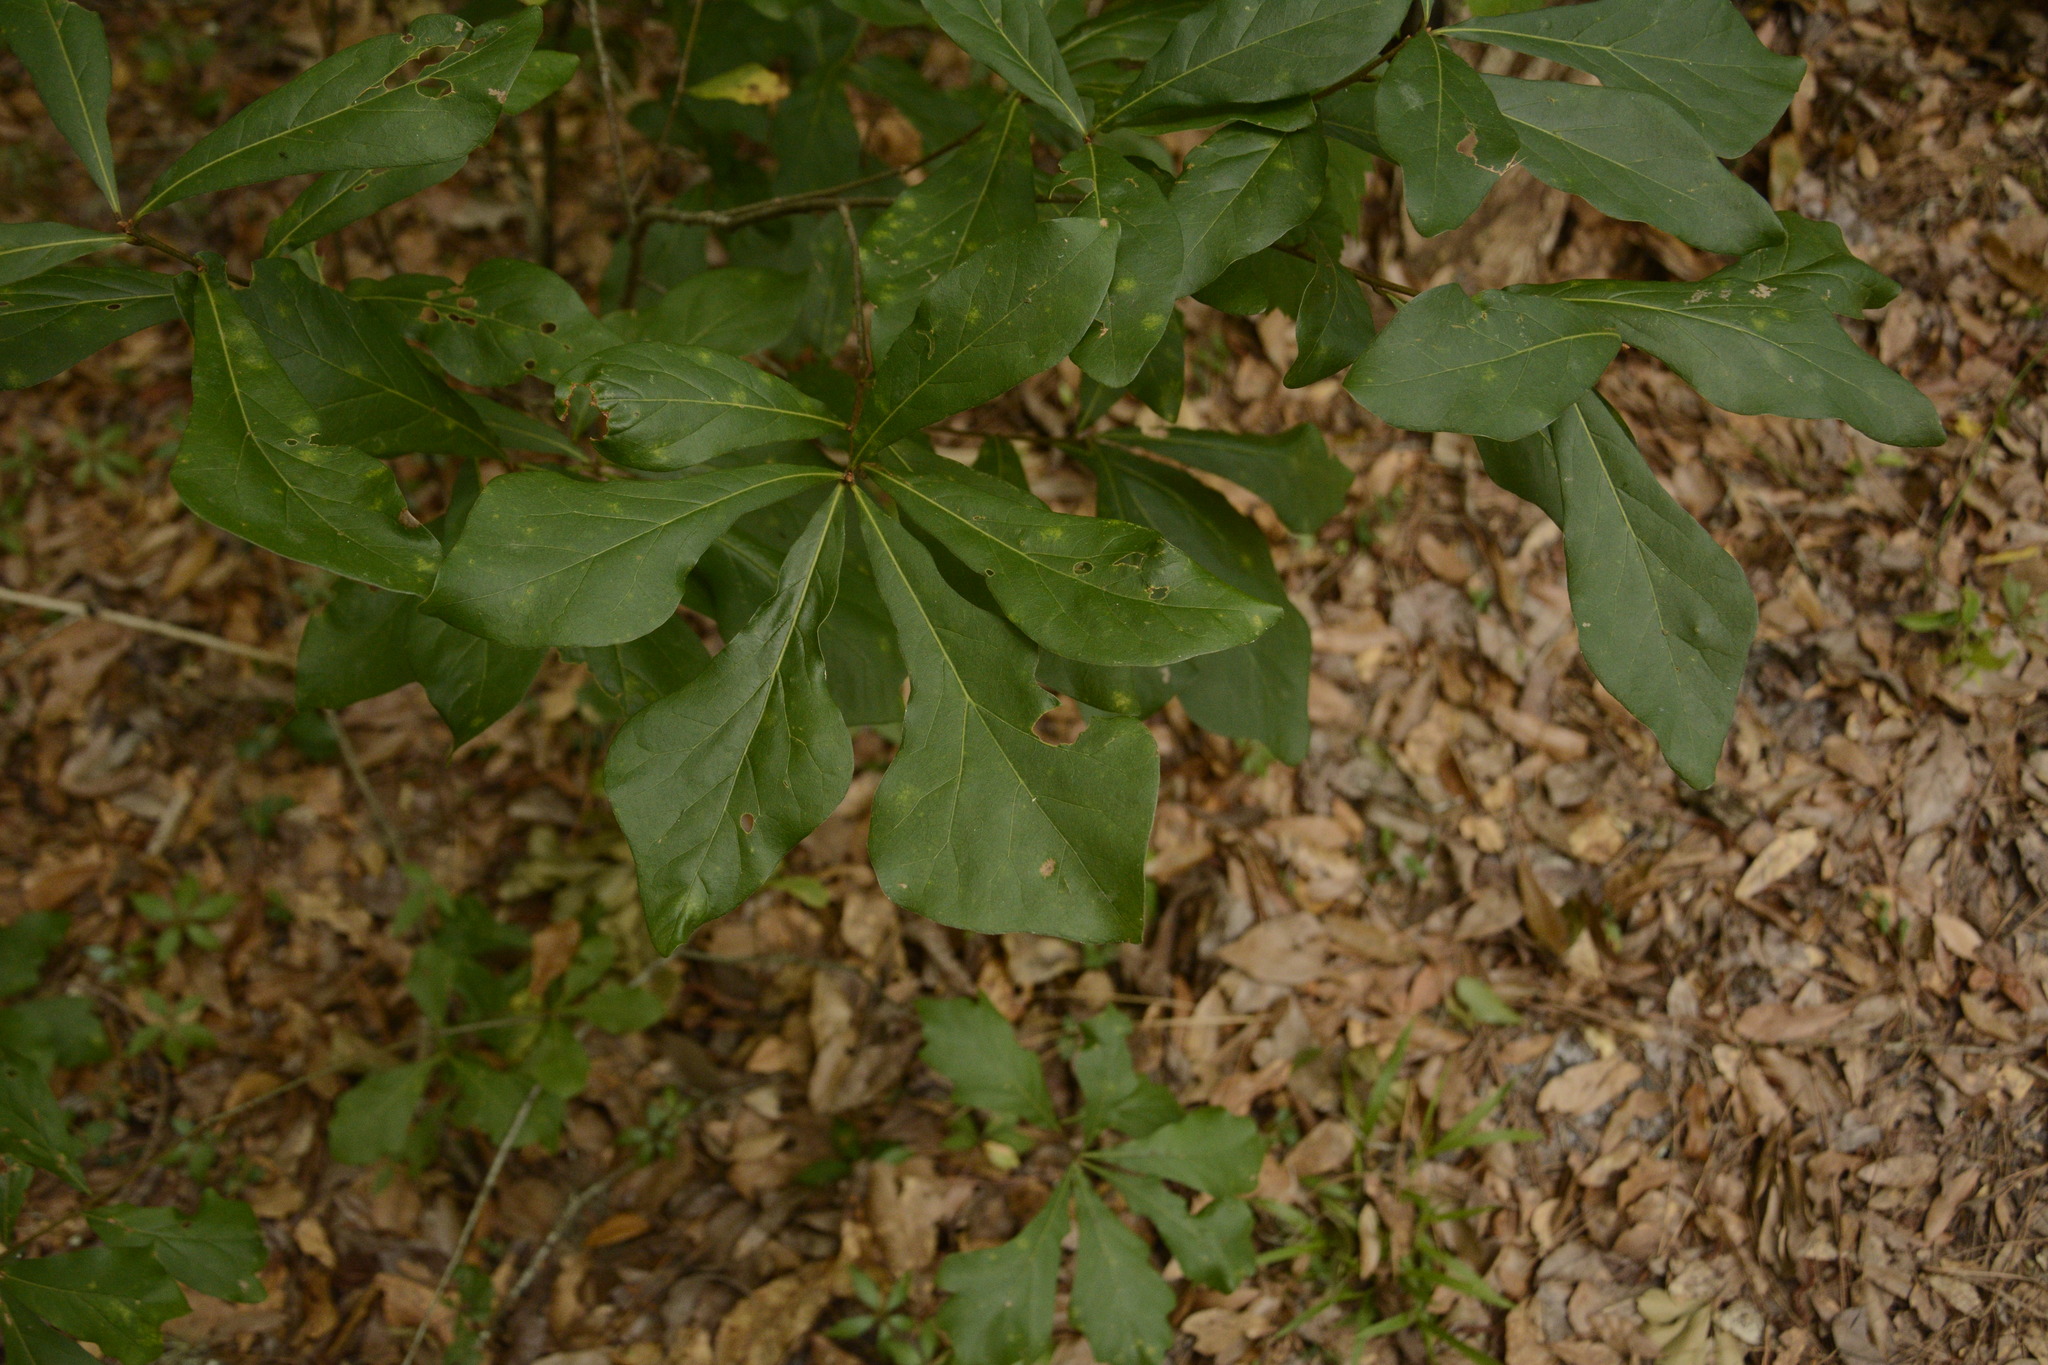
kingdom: Plantae
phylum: Tracheophyta
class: Magnoliopsida
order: Fagales
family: Fagaceae
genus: Quercus
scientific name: Quercus nigra
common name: Water oak
